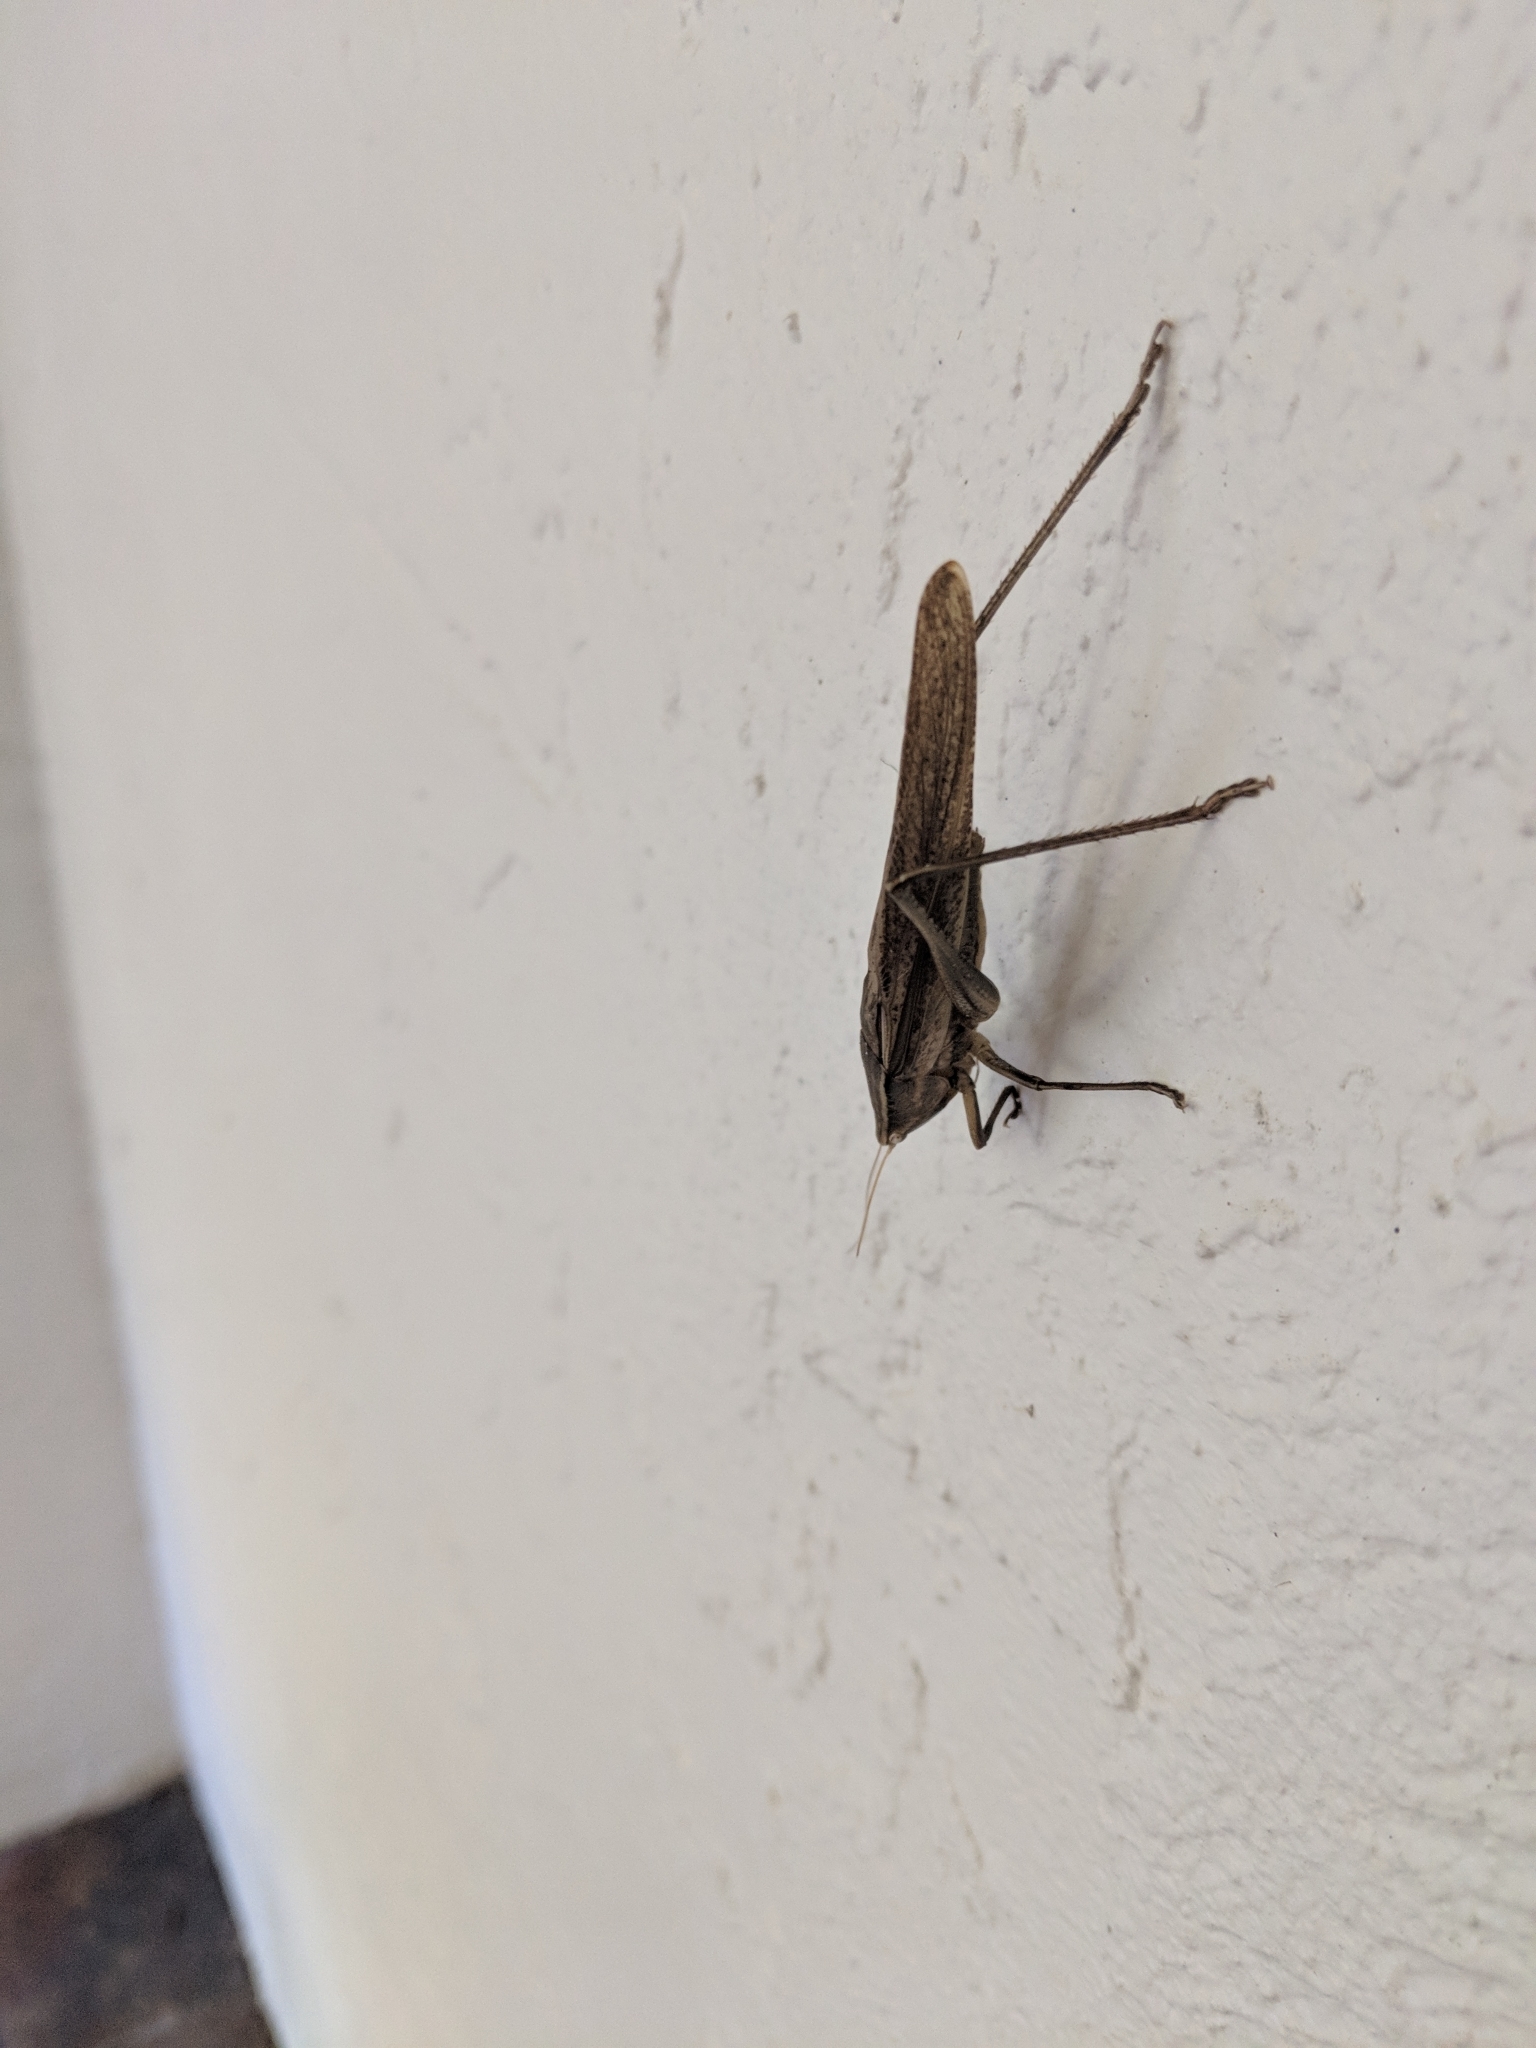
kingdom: Animalia
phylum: Arthropoda
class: Insecta
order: Orthoptera
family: Tettigoniidae
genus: Neoconocephalus
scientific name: Neoconocephalus triops
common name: Broad-tipped conehead
